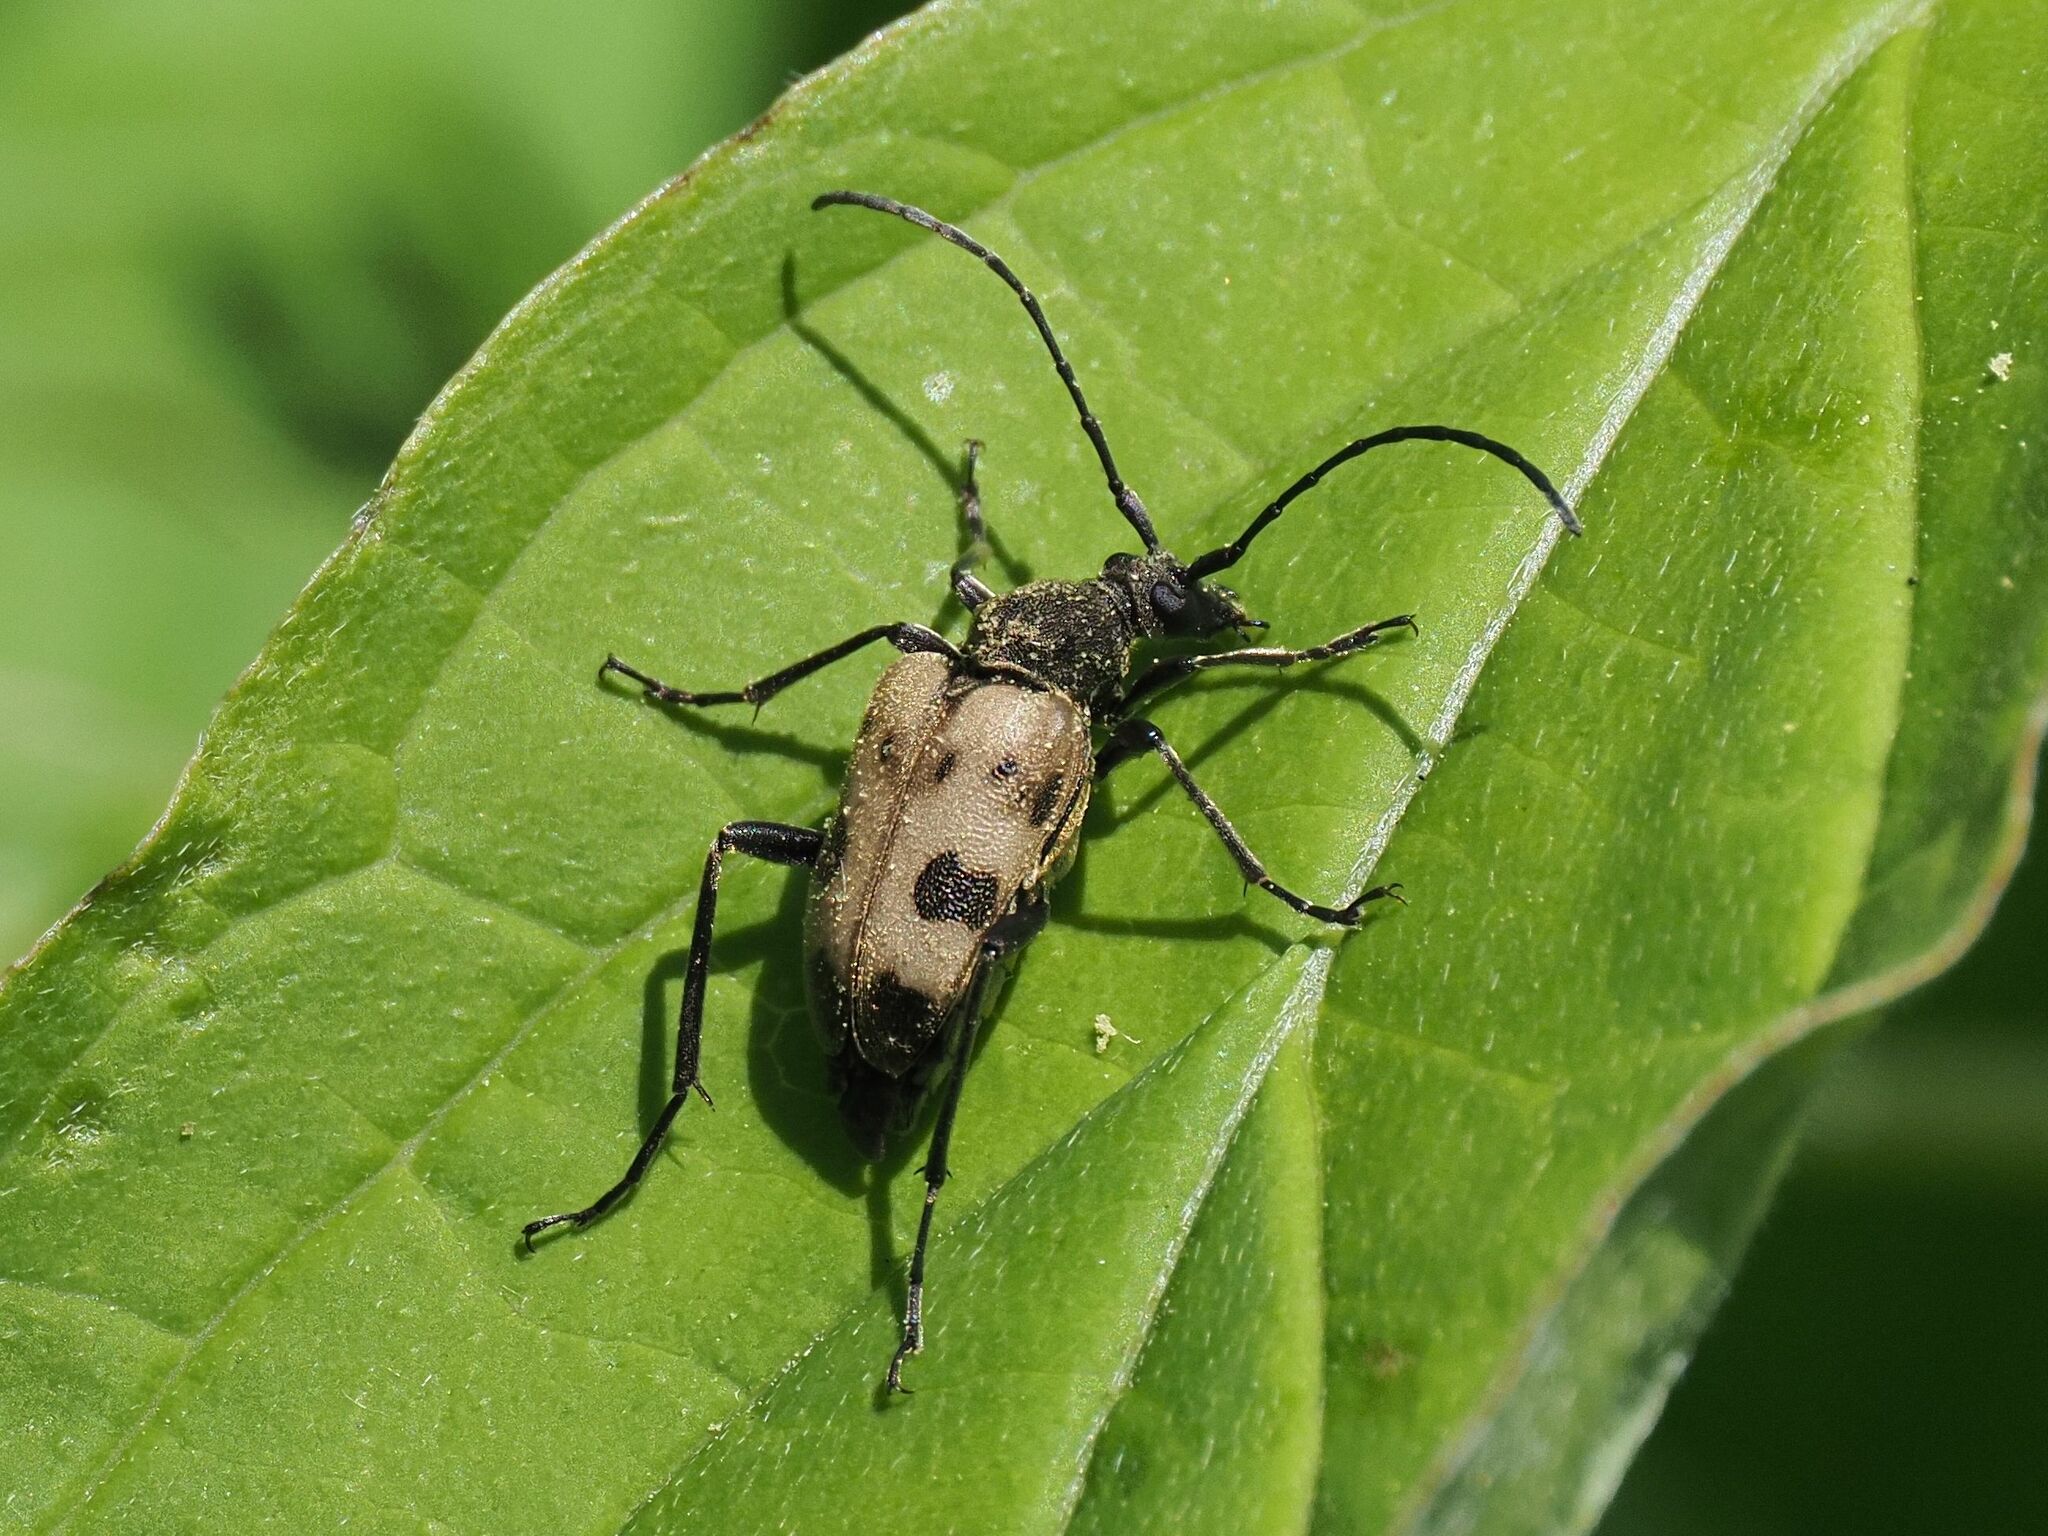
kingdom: Animalia
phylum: Arthropoda
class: Insecta
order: Coleoptera
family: Cerambycidae
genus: Pachytodes
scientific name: Pachytodes cerambyciformis
